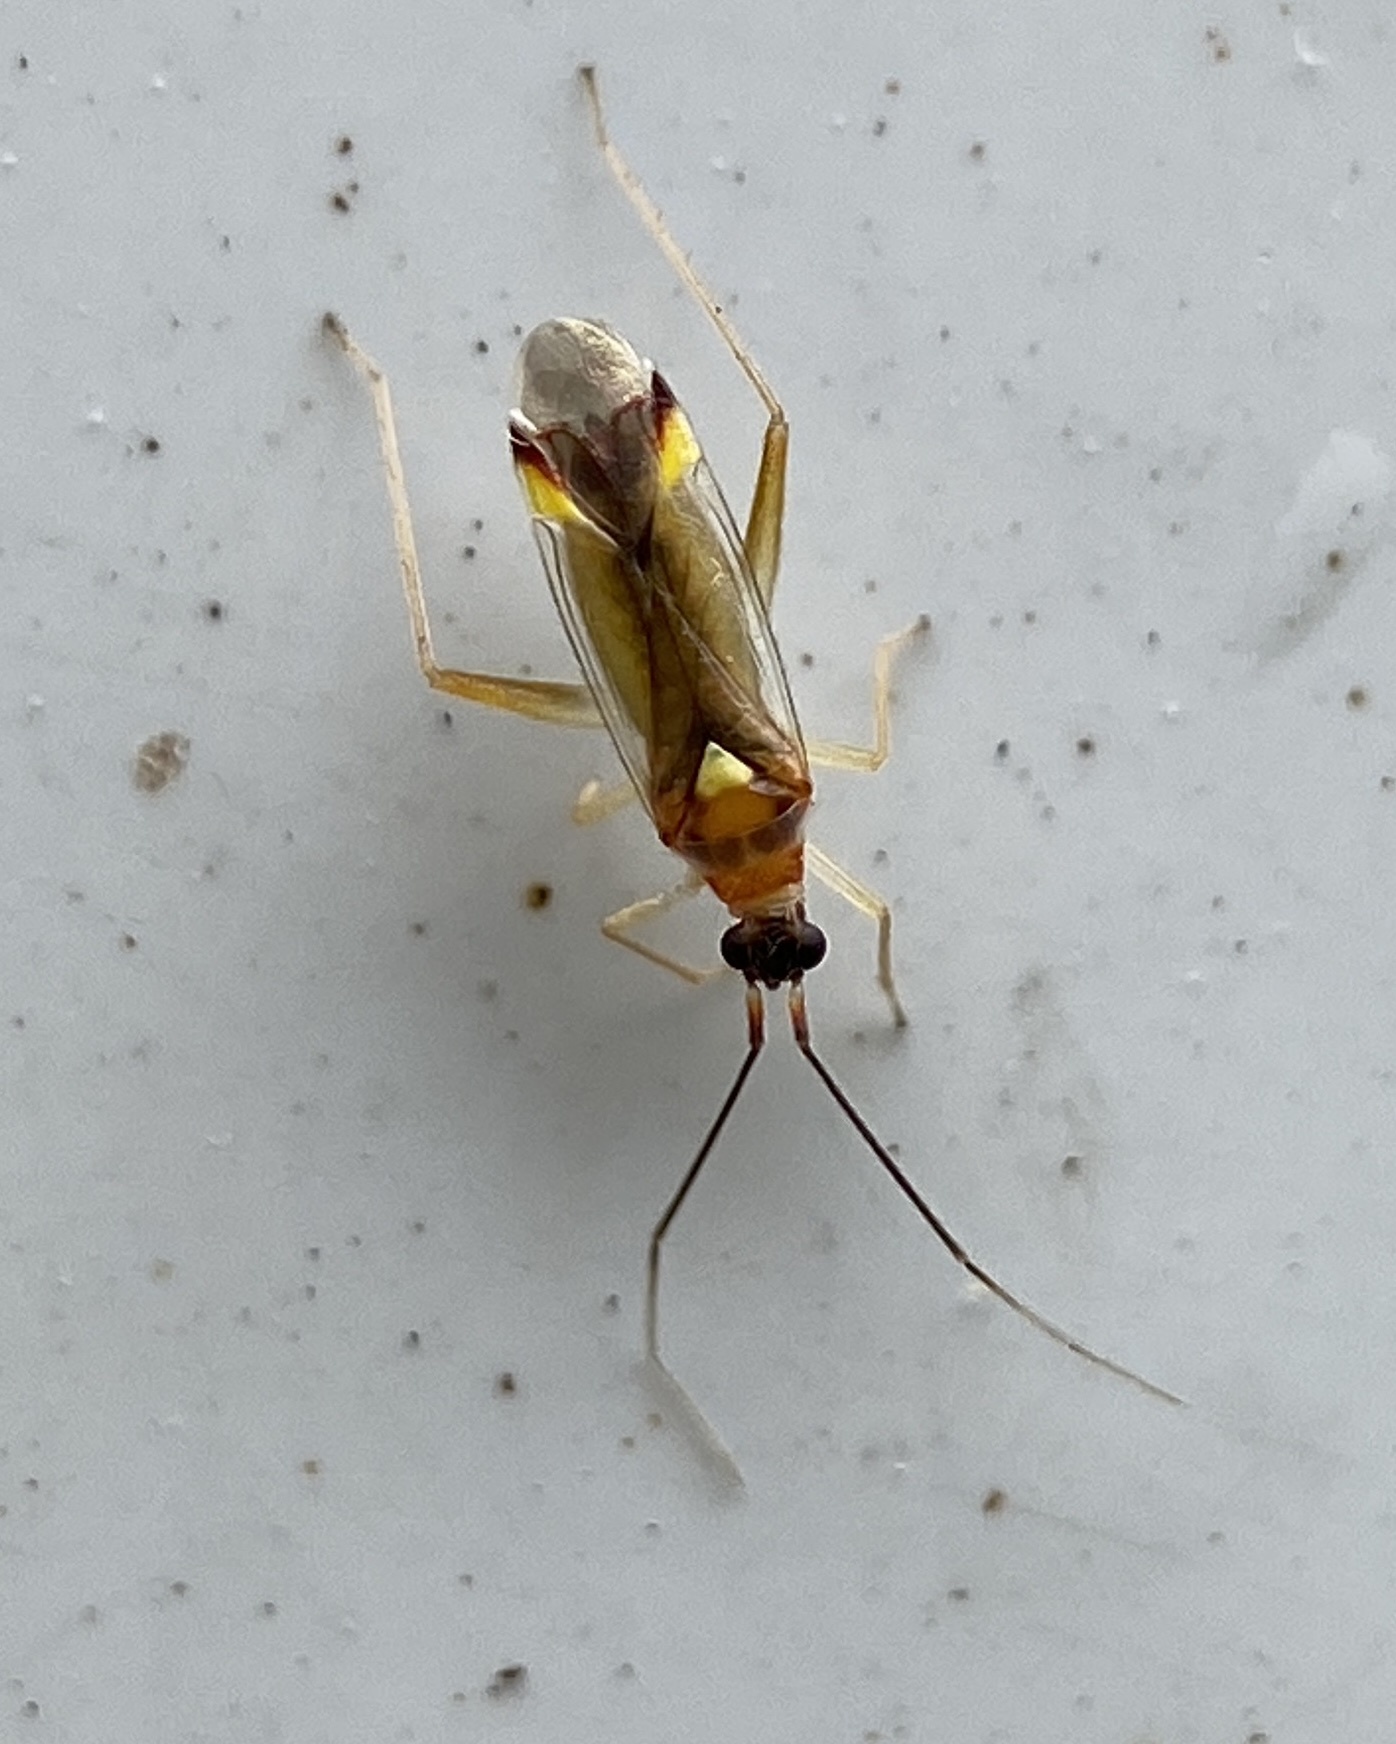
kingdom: Animalia
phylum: Arthropoda
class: Insecta
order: Hemiptera
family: Miridae
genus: Campyloneura
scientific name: Campyloneura virgula
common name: Predatory bug
